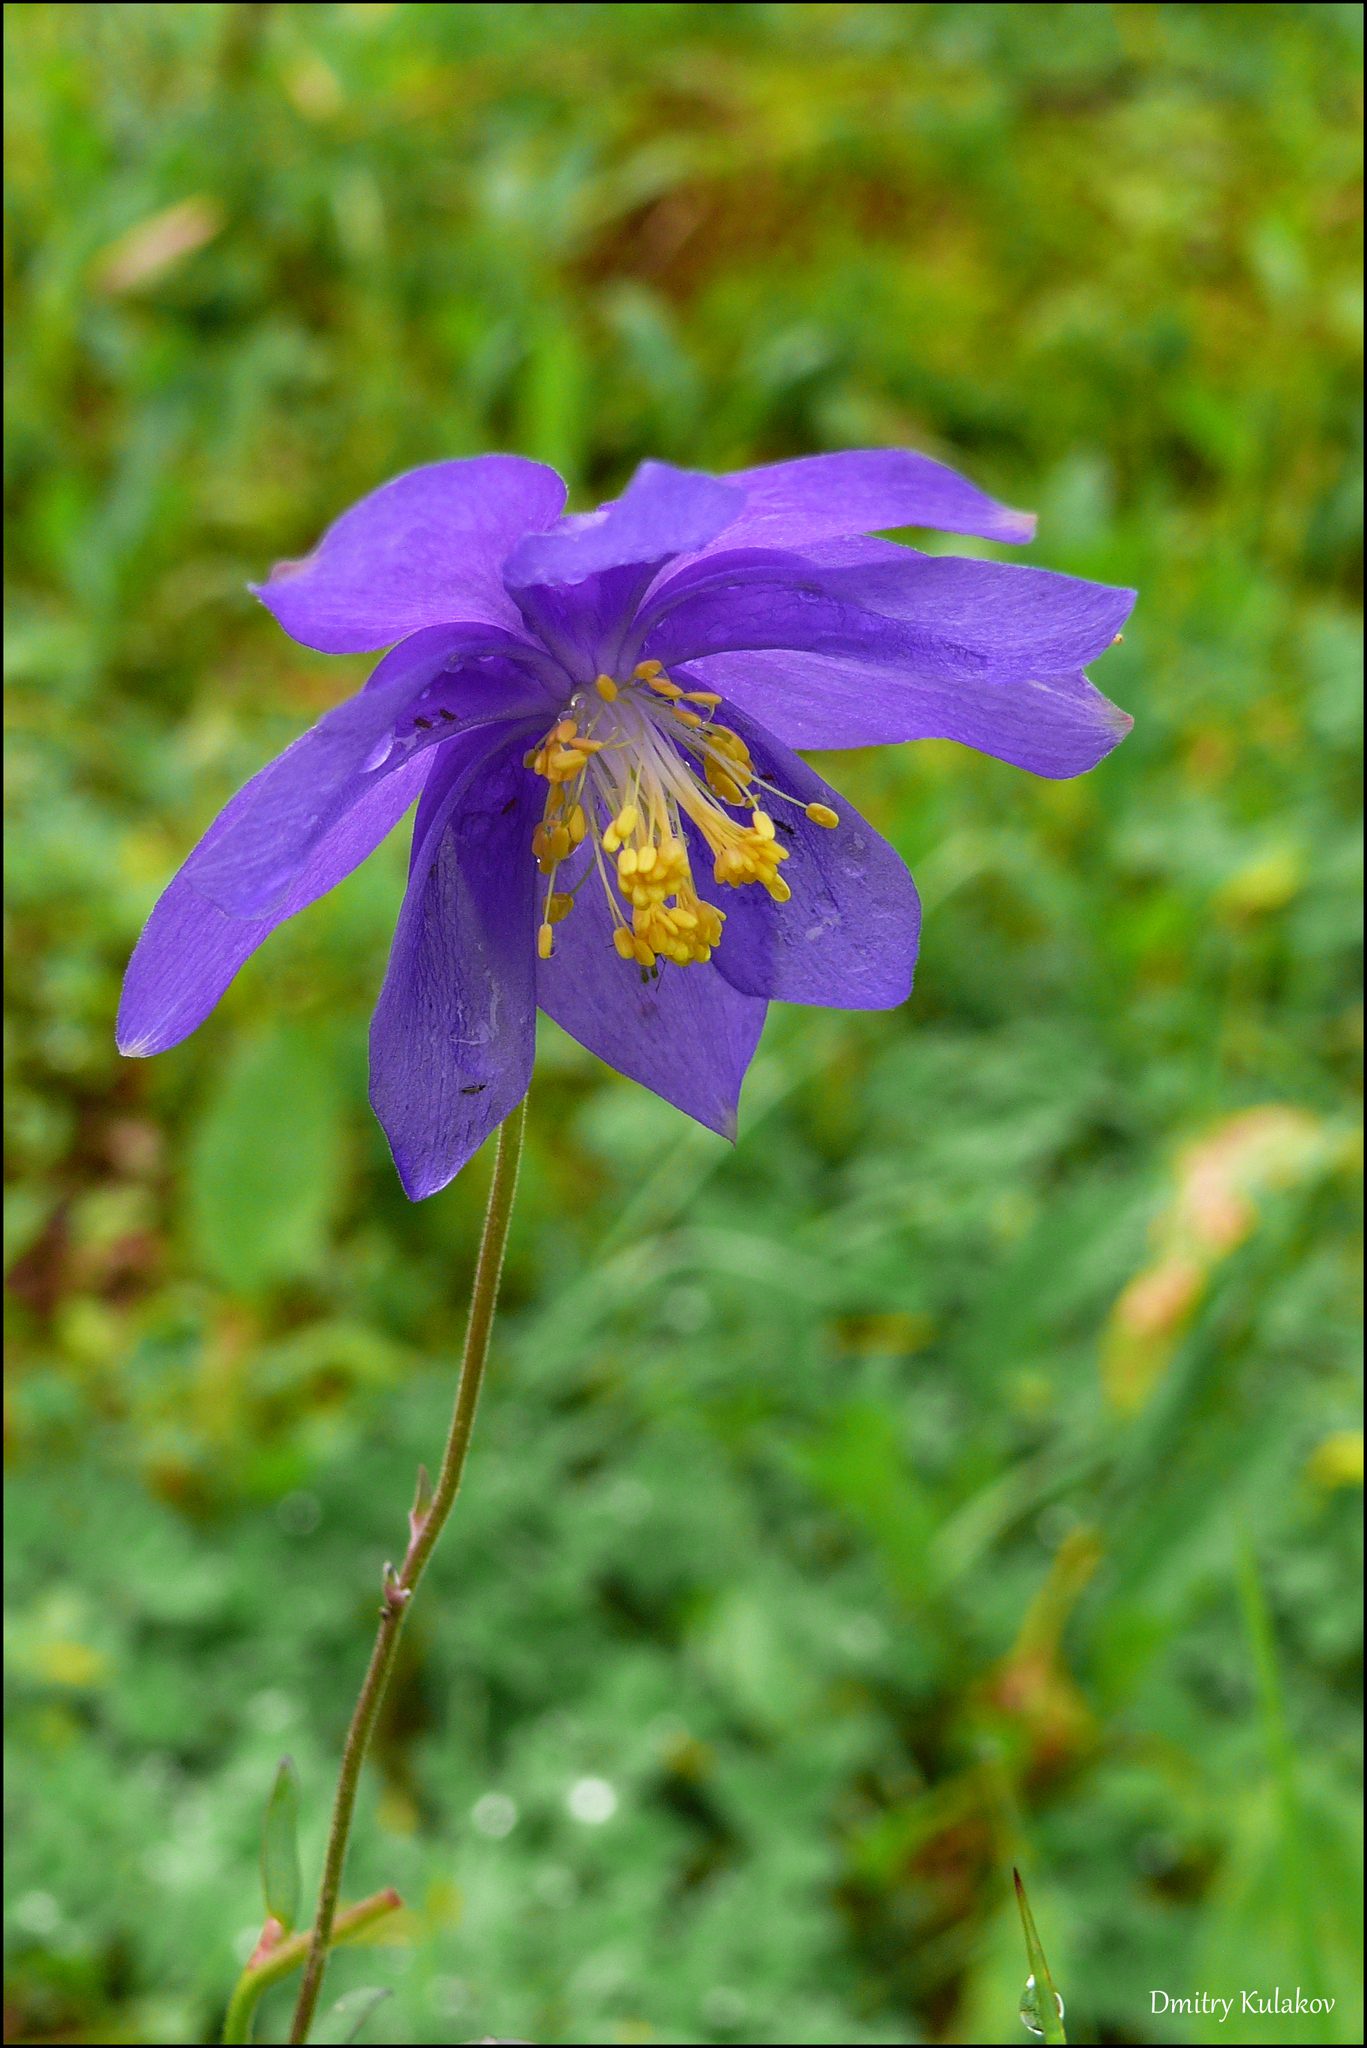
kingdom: Plantae
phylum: Tracheophyta
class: Magnoliopsida
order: Ranunculales
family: Ranunculaceae
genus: Aquilegia
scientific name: Aquilegia glandulosa
